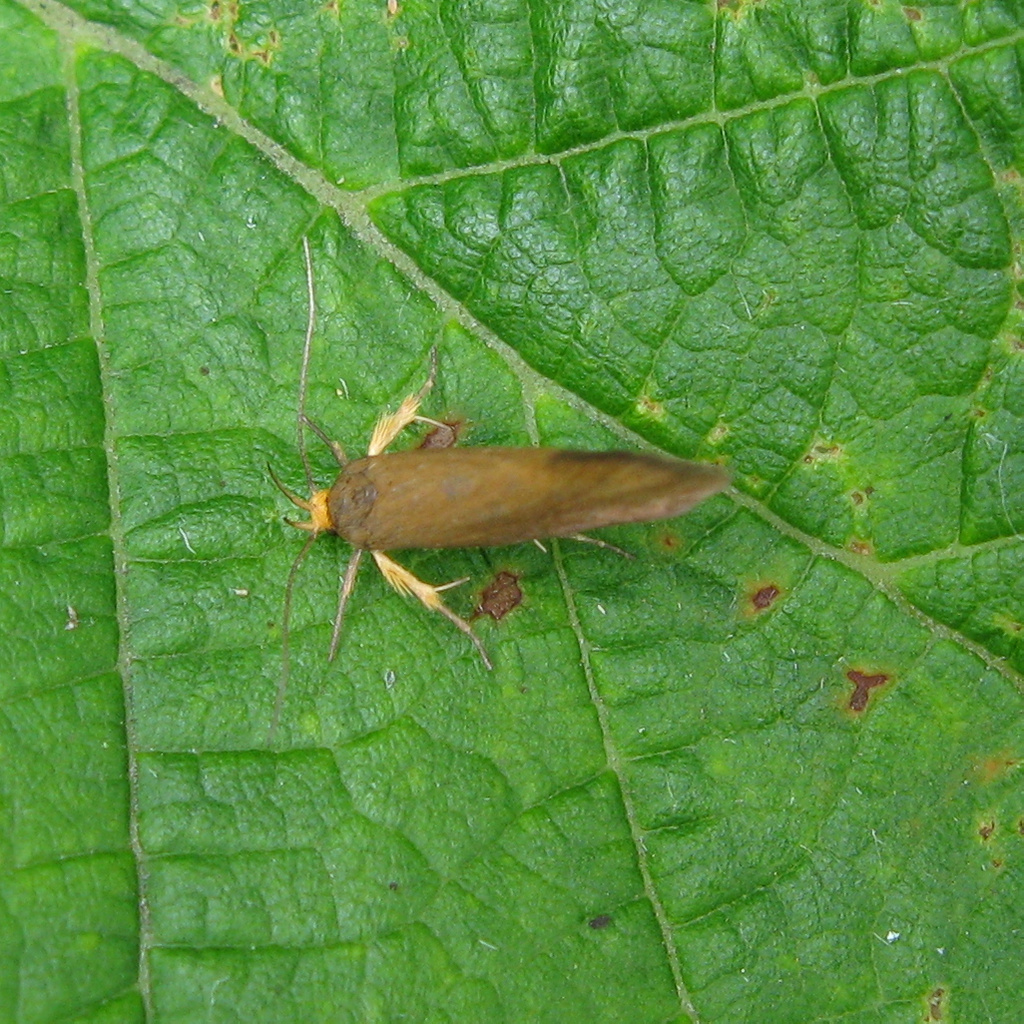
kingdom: Animalia
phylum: Arthropoda
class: Insecta
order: Lepidoptera
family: Oecophoridae
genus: Borkhausenia
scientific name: Borkhausenia Crassa unitella
